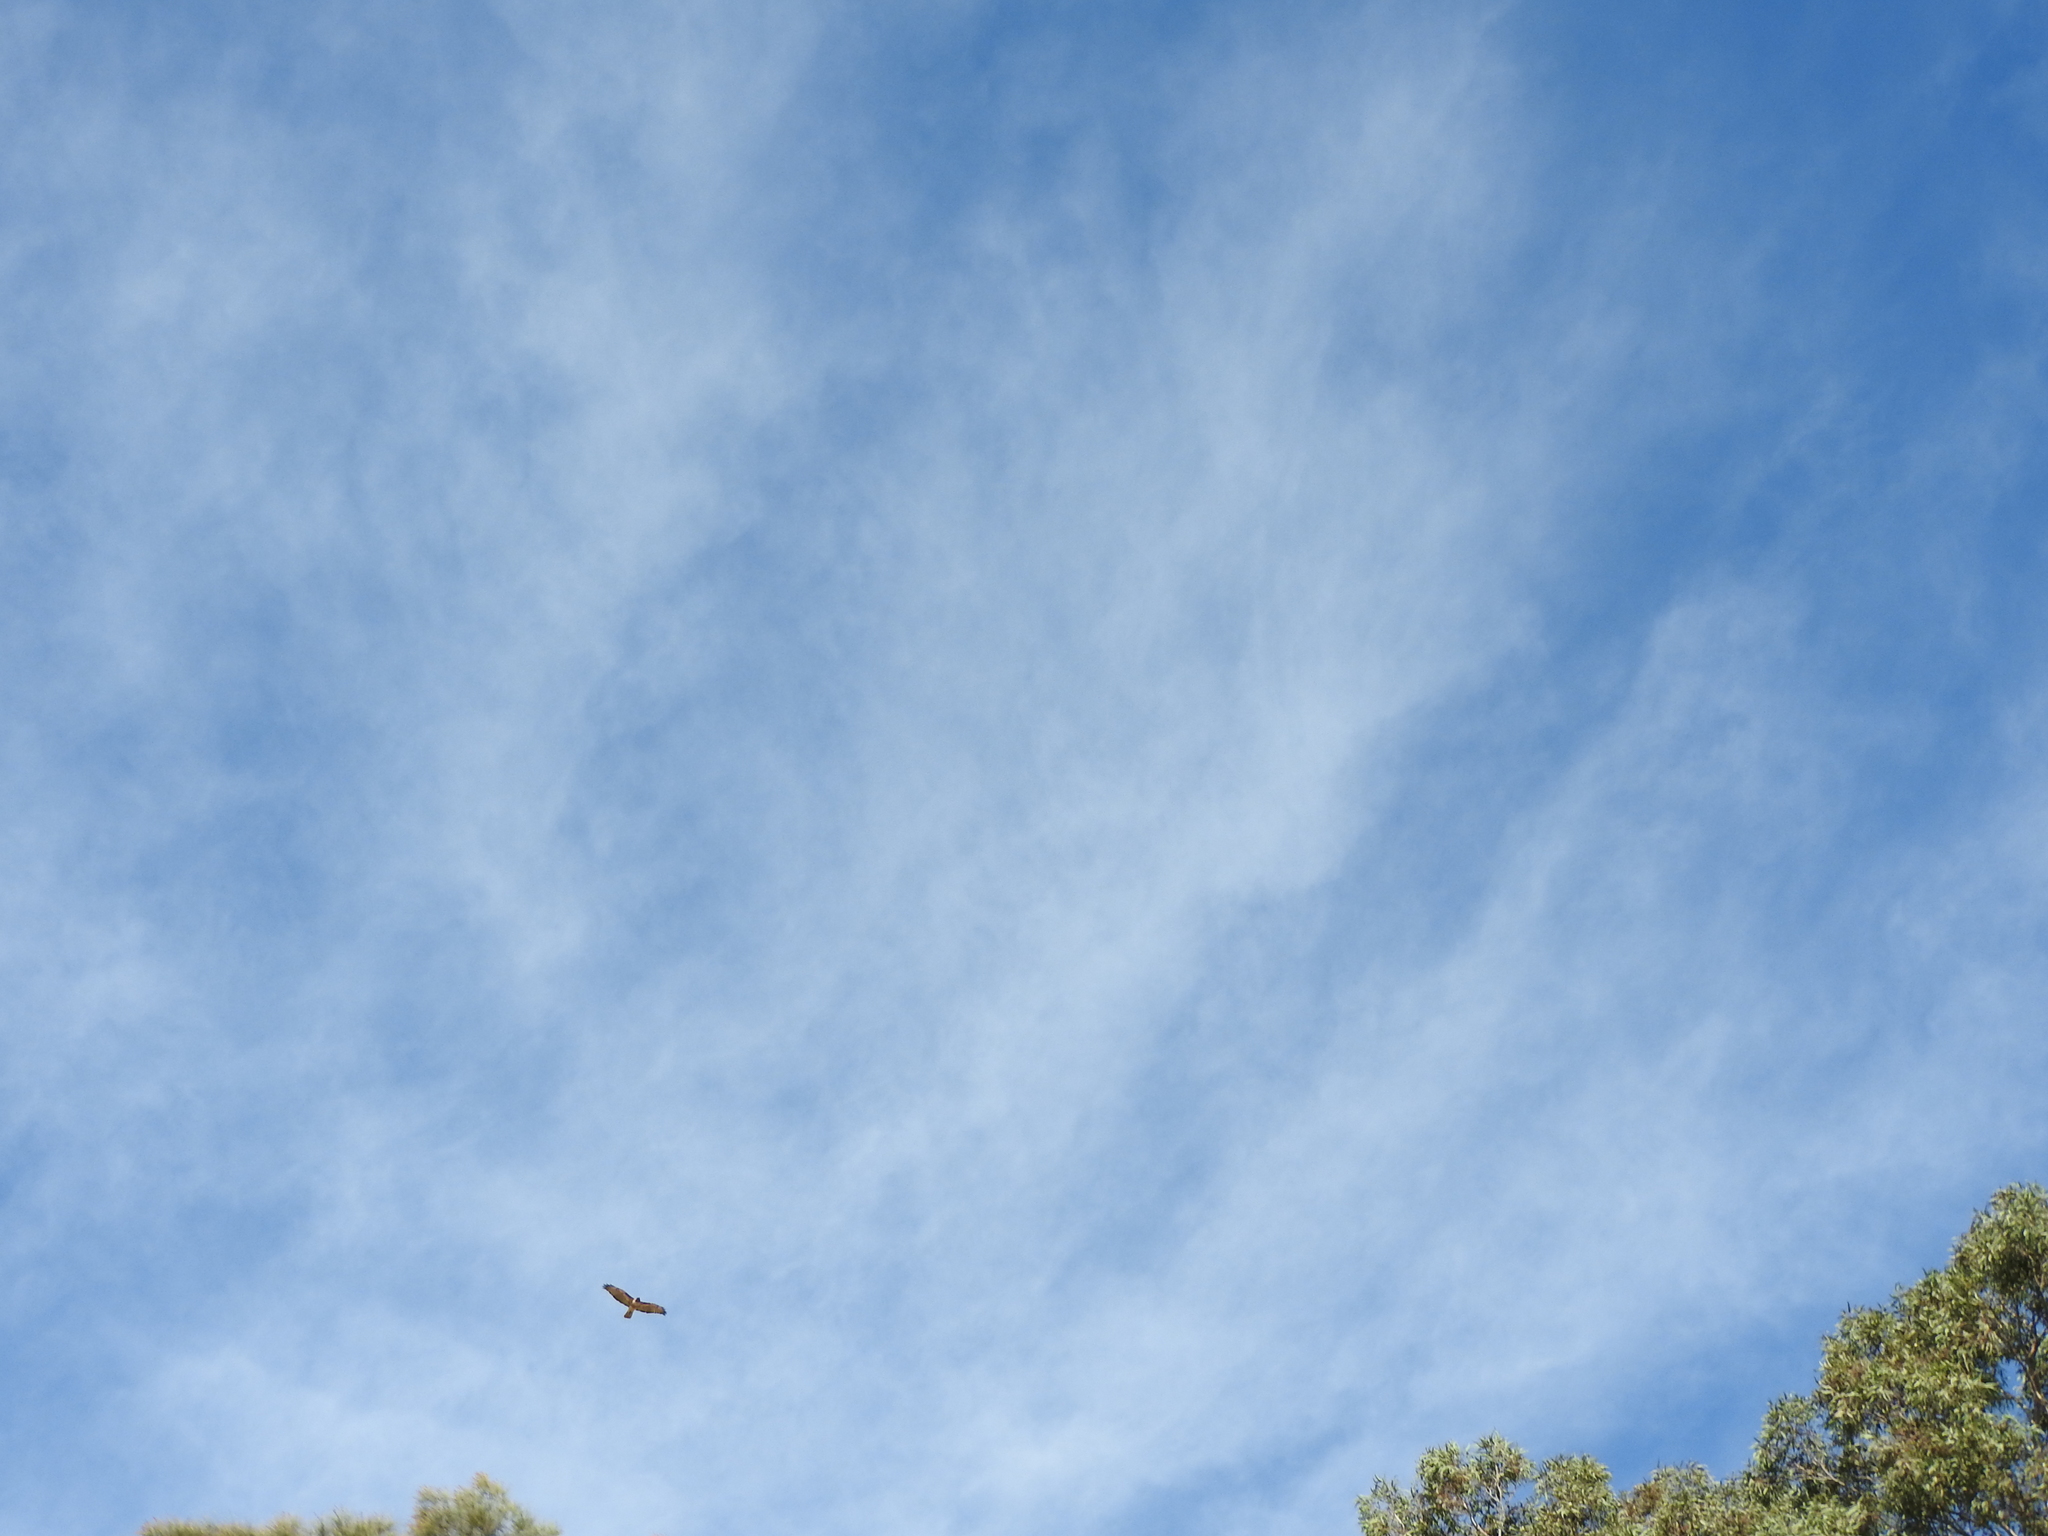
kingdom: Animalia
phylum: Chordata
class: Aves
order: Accipitriformes
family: Accipitridae
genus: Buteo
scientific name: Buteo jamaicensis
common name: Red-tailed hawk
